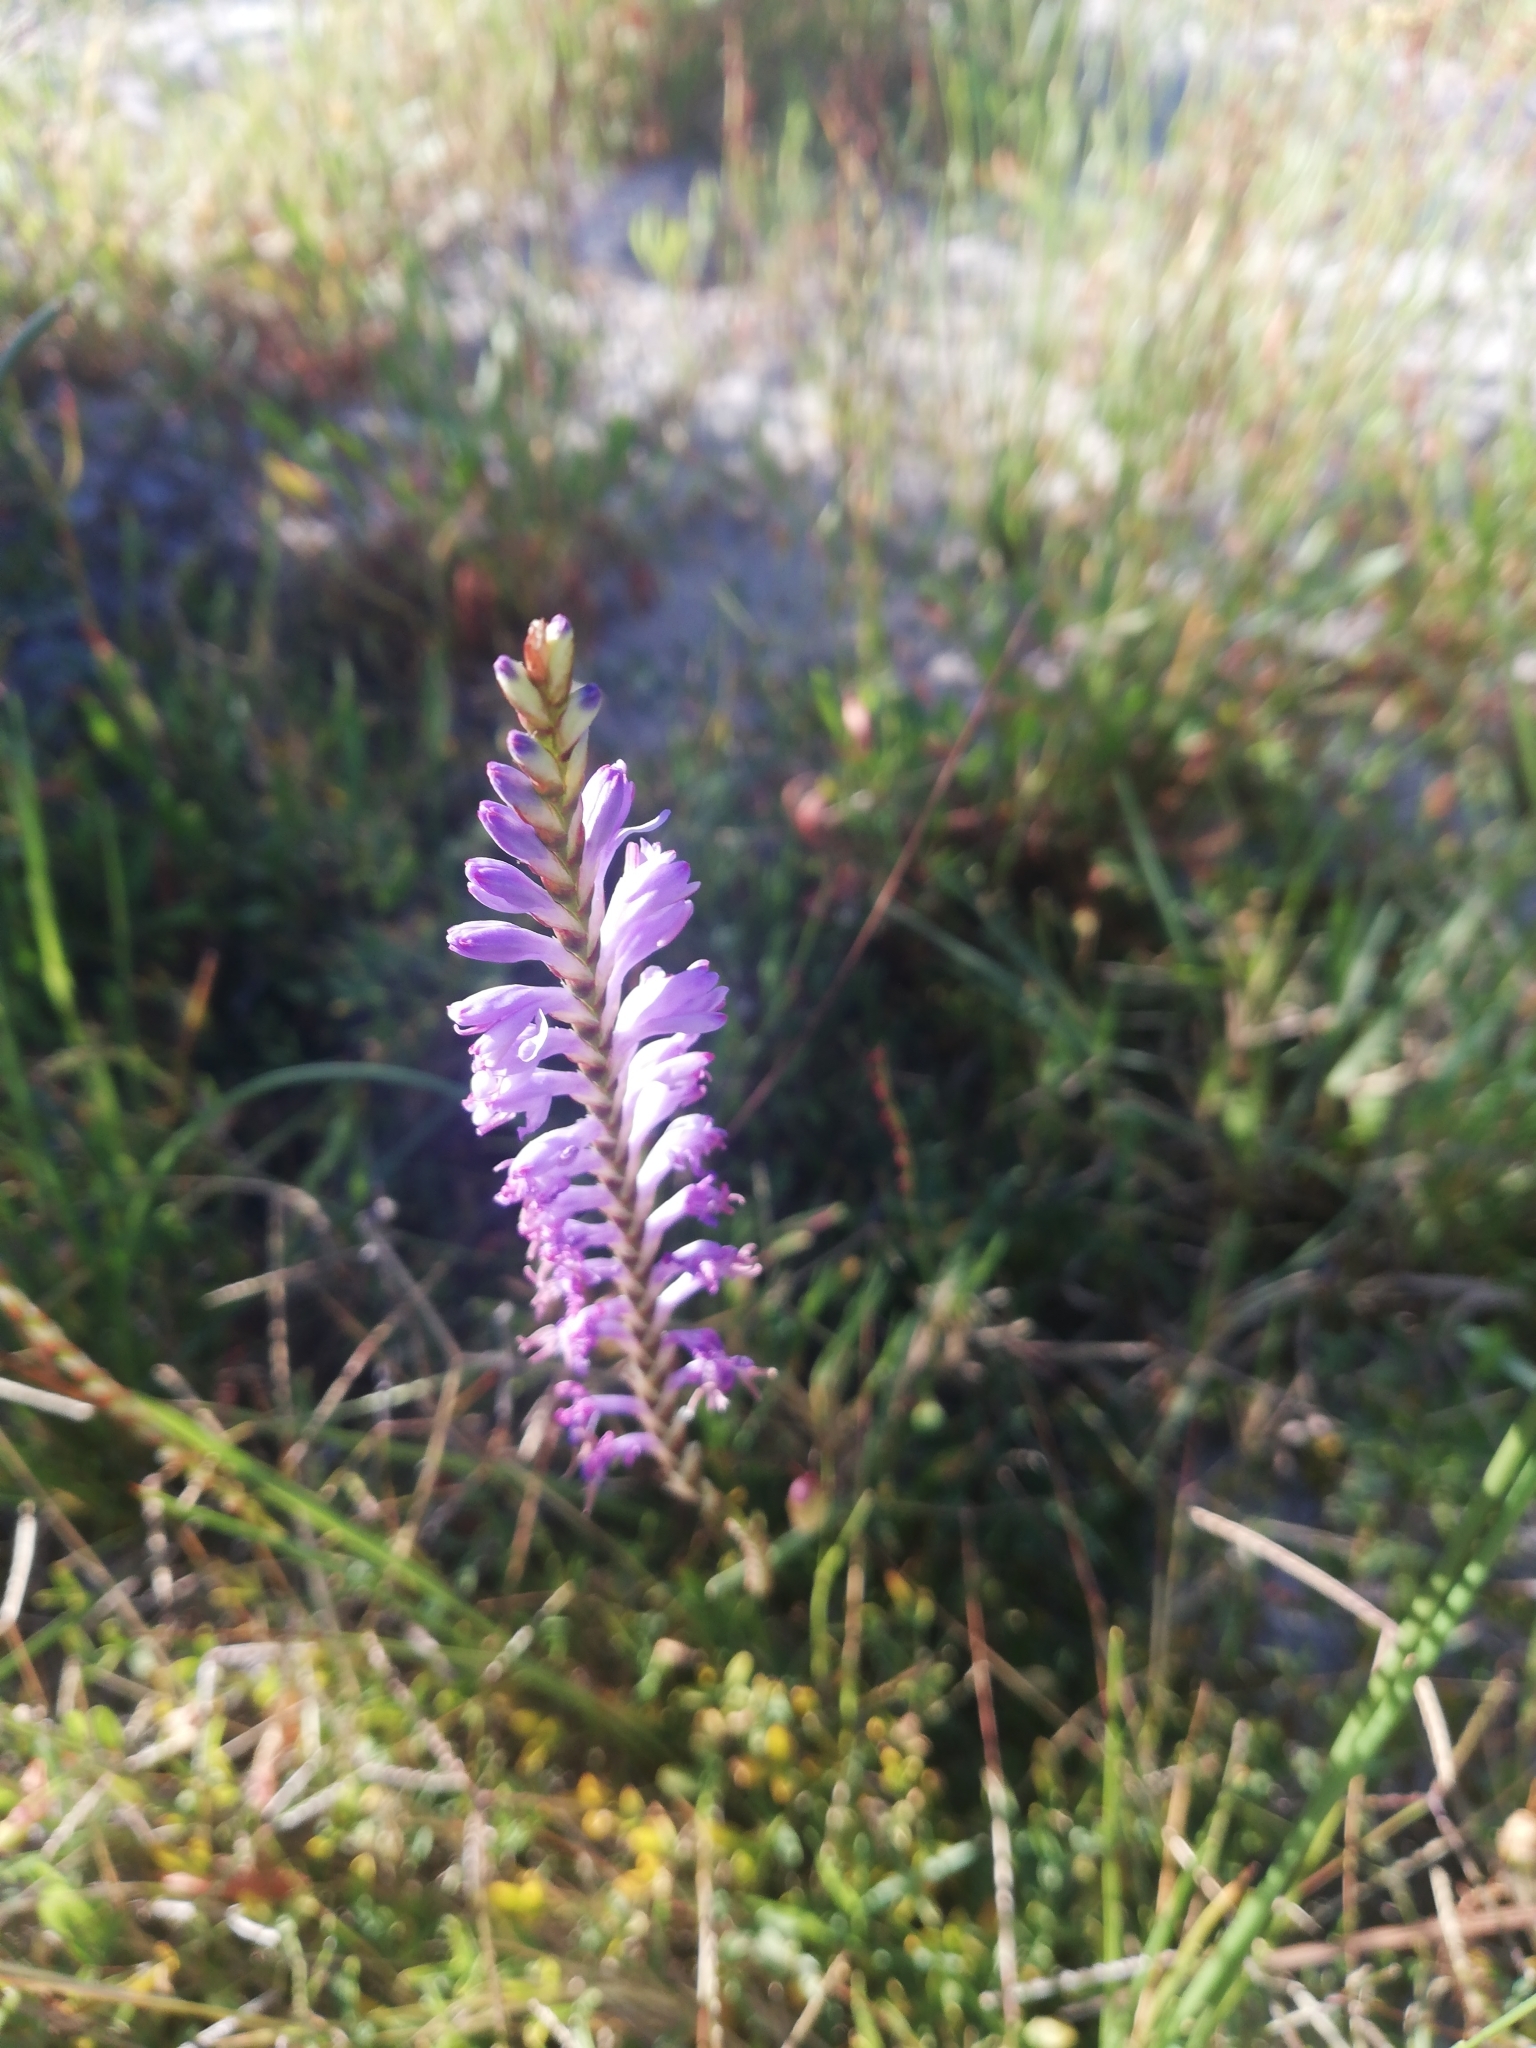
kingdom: Plantae
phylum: Tracheophyta
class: Liliopsida
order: Asparagales
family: Iridaceae
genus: Micranthus
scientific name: Micranthus plantagineus
